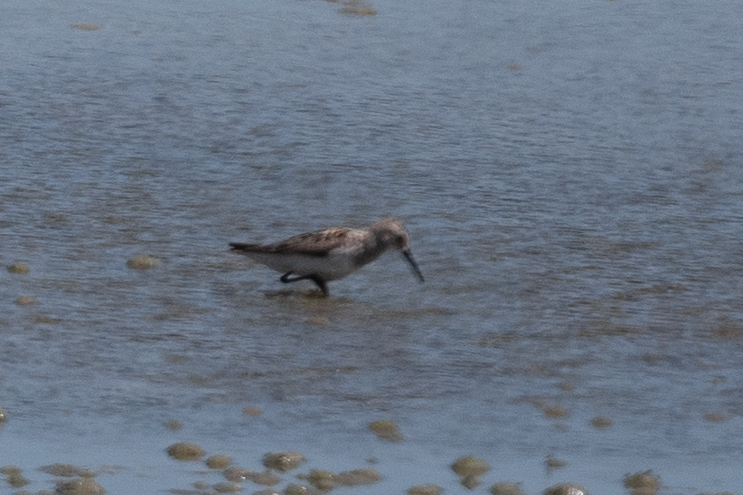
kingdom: Animalia
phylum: Chordata
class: Aves
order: Charadriiformes
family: Scolopacidae
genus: Calidris
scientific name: Calidris mauri
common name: Western sandpiper
